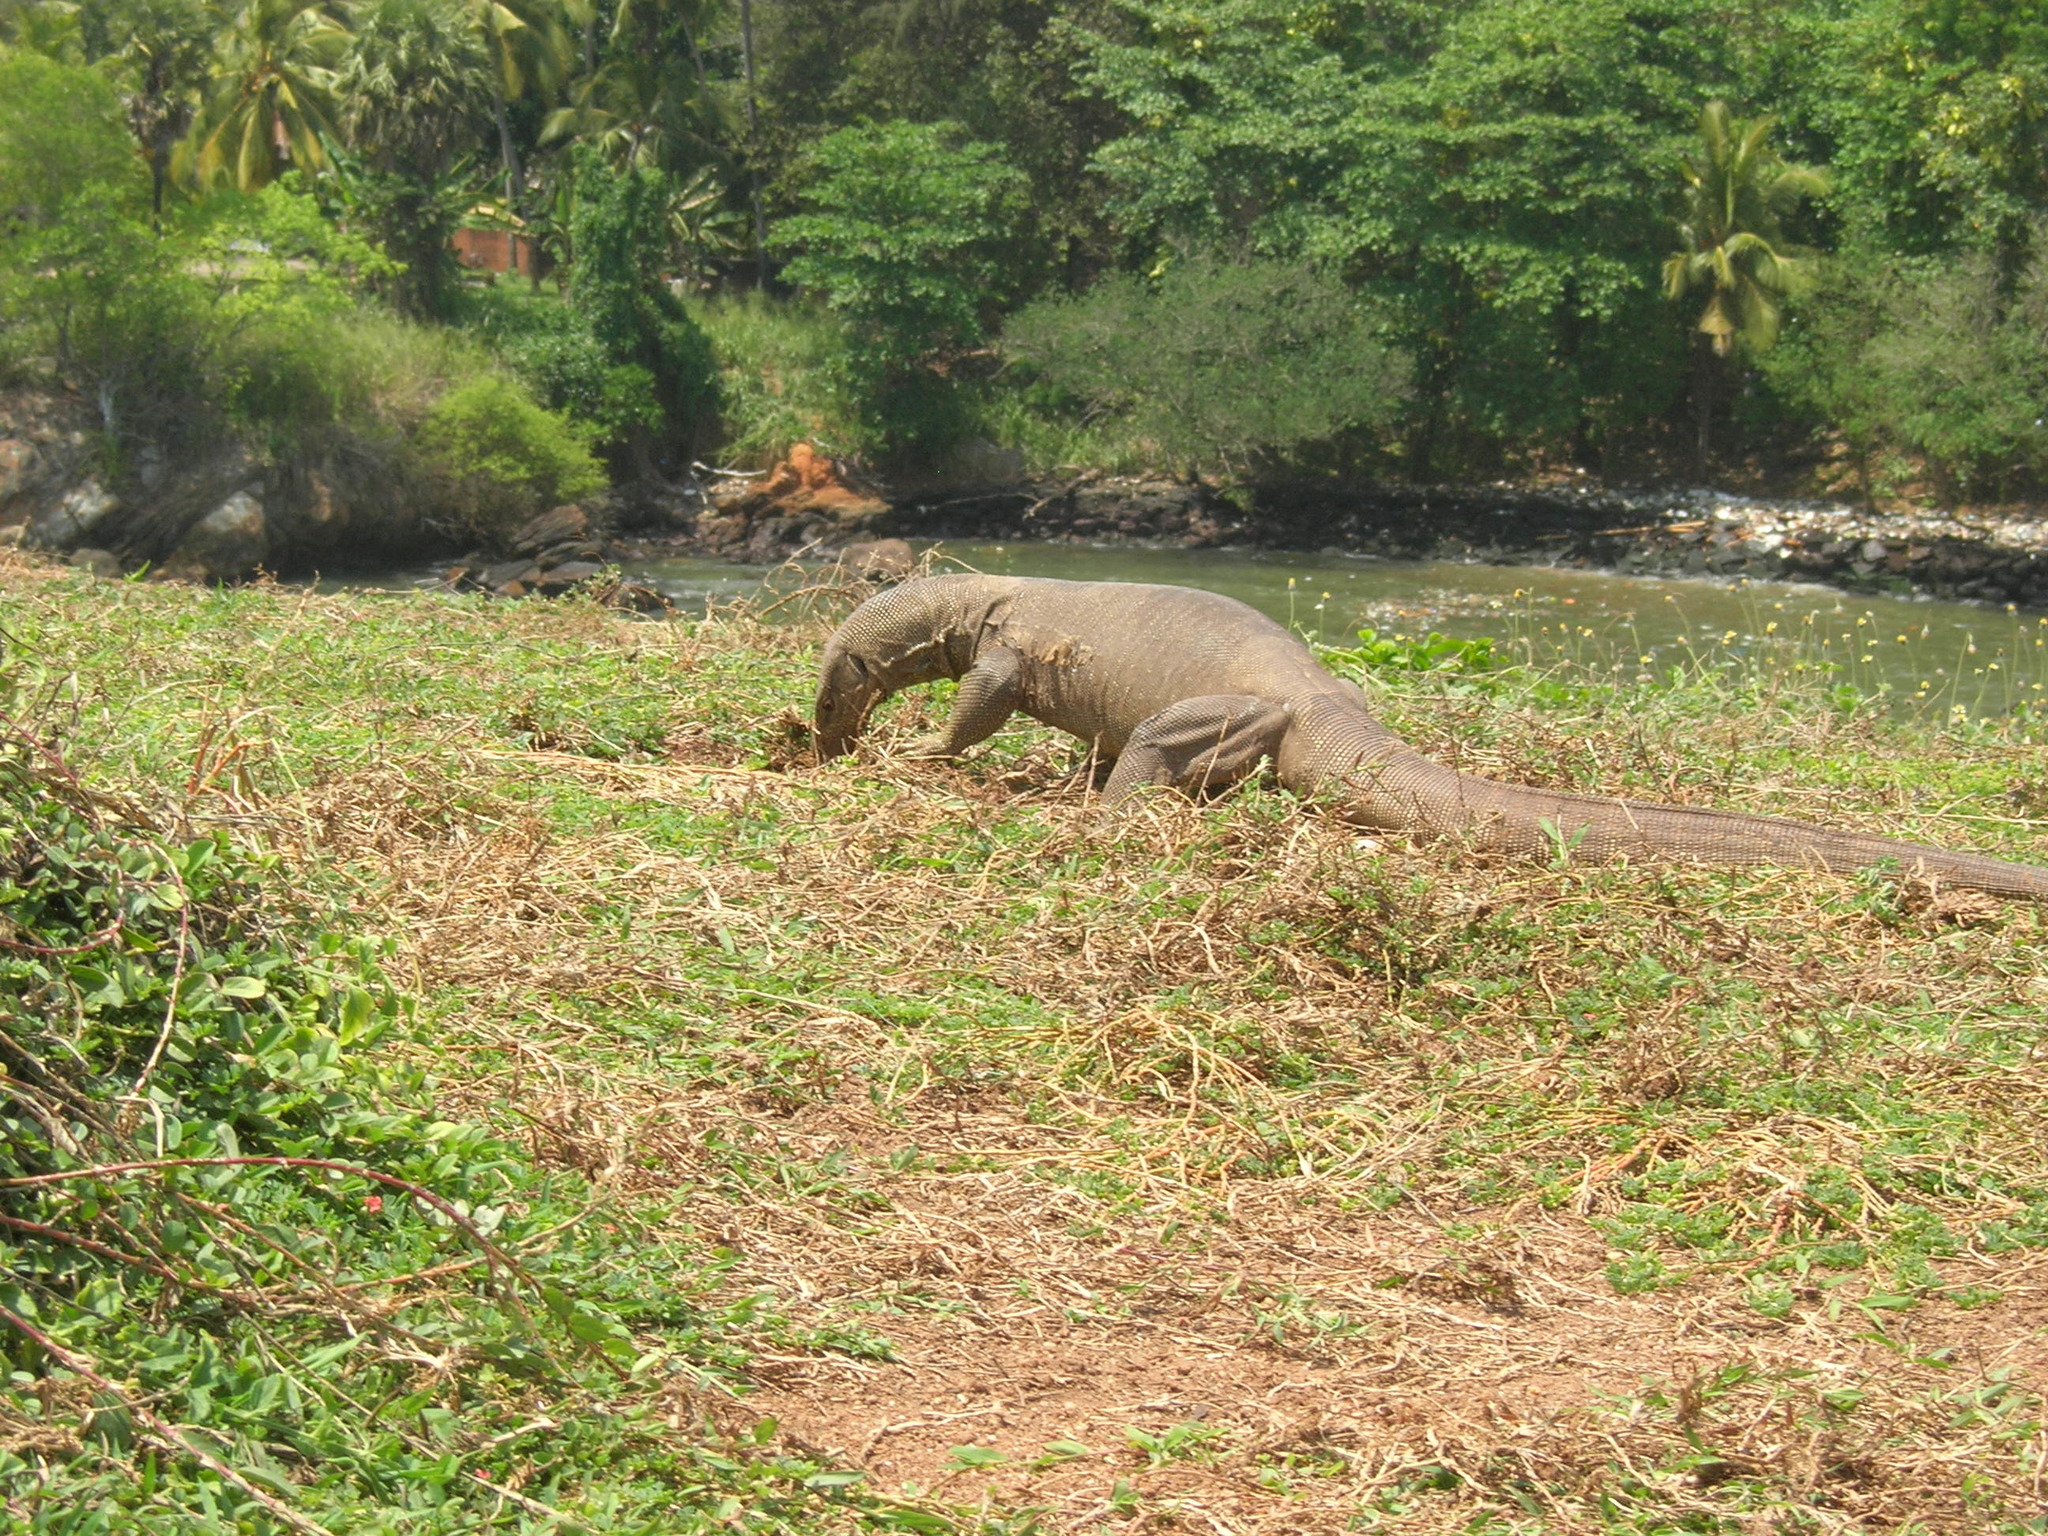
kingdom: Animalia
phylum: Chordata
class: Squamata
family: Varanidae
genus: Varanus
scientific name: Varanus bengalensis
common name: Bengal monitor
